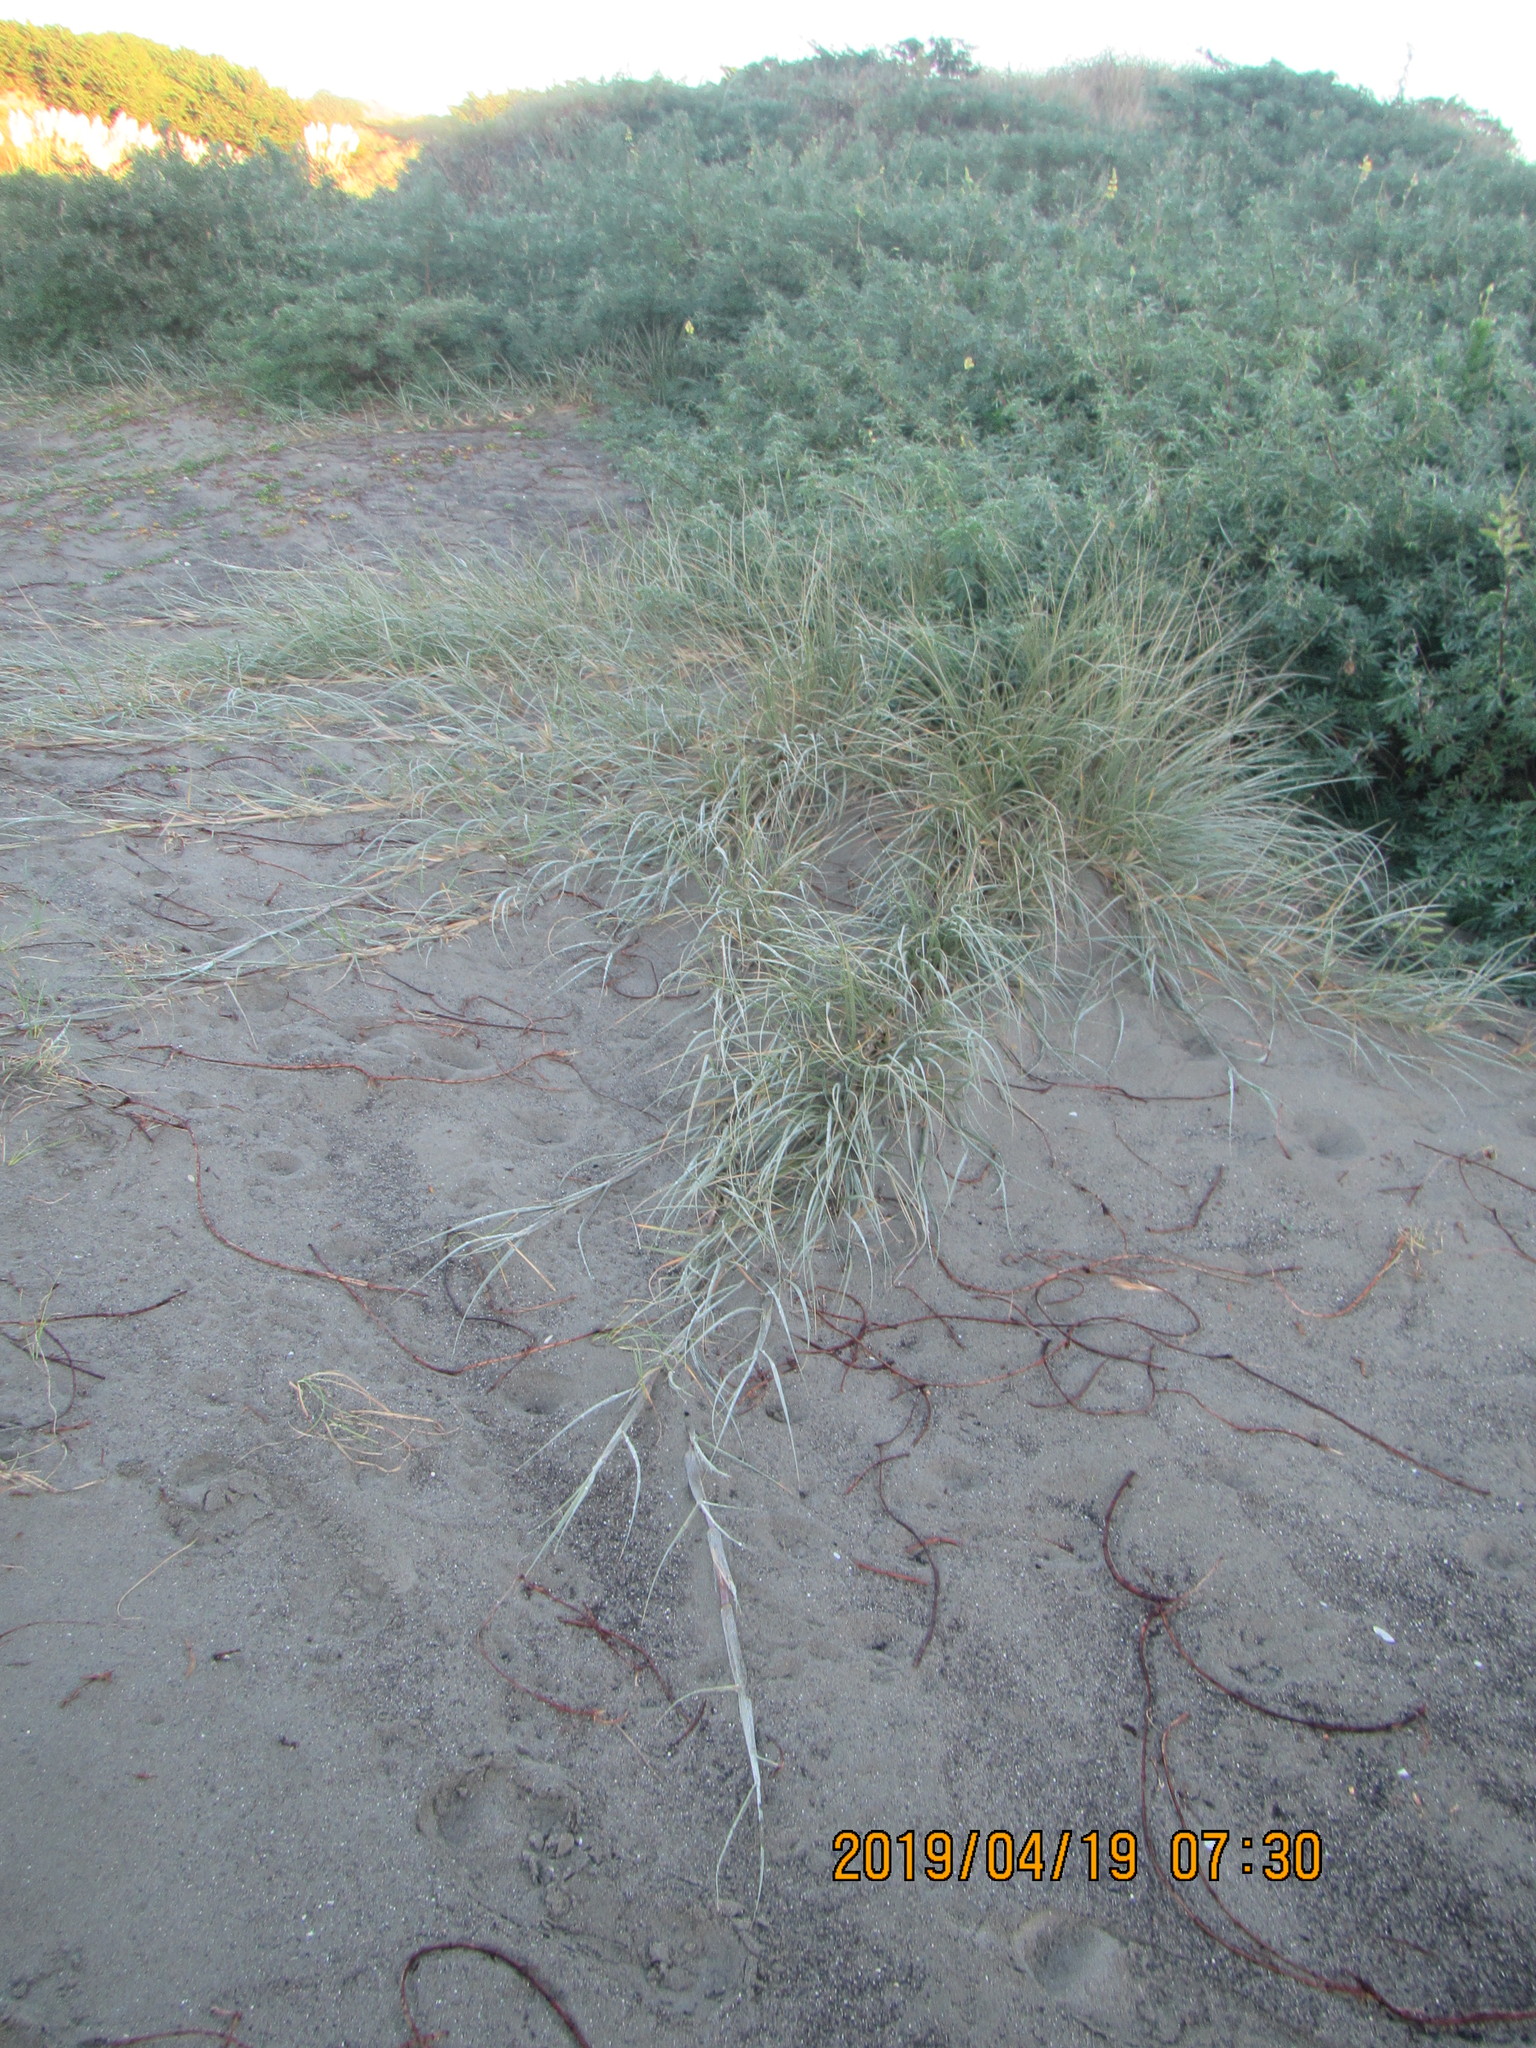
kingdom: Plantae
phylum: Tracheophyta
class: Liliopsida
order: Poales
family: Poaceae
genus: Spinifex
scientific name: Spinifex sericeus
